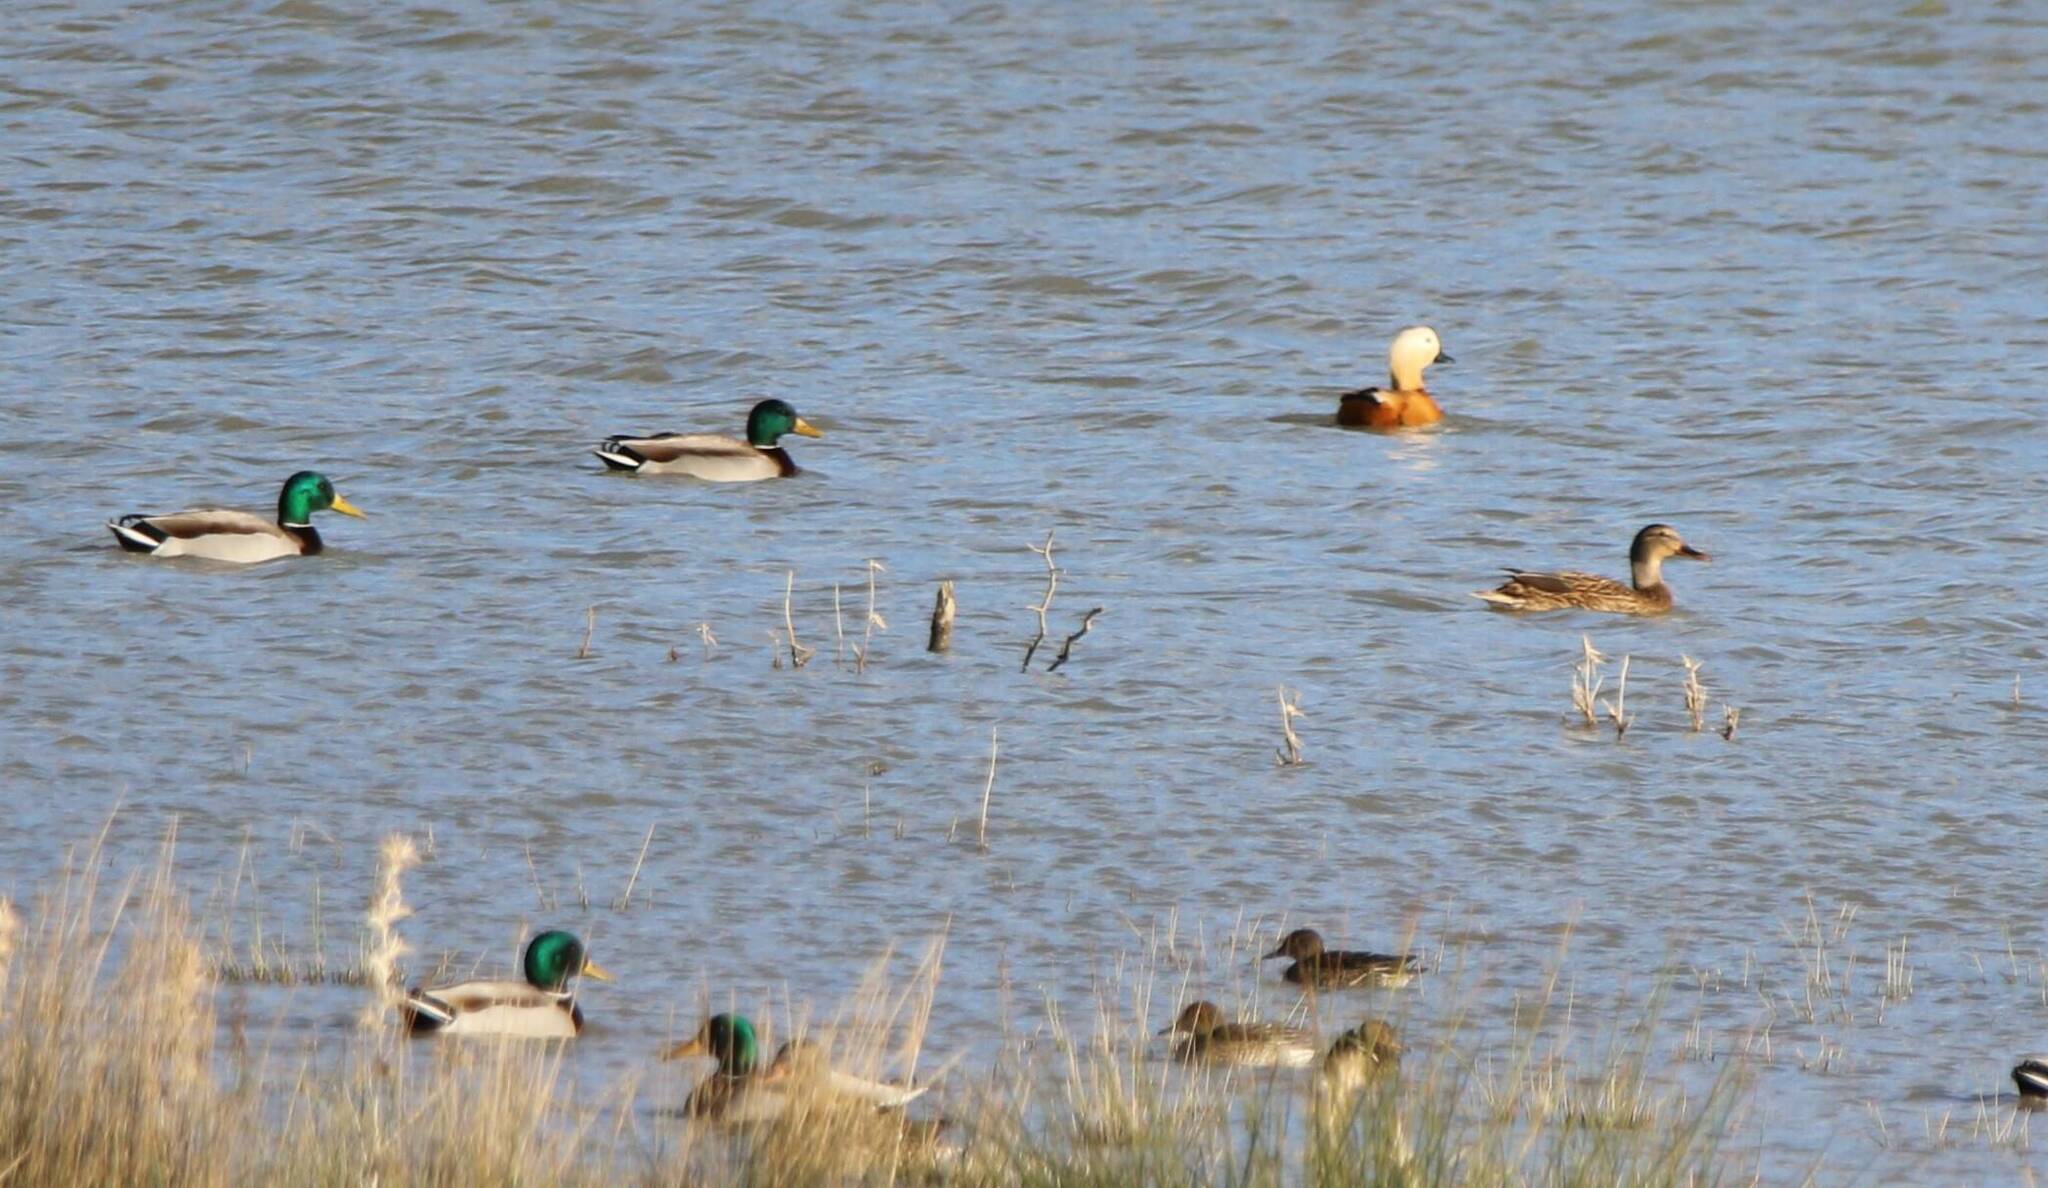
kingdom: Animalia
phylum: Chordata
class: Aves
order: Anseriformes
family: Anatidae
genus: Anas
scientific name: Anas platyrhynchos
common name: Mallard
